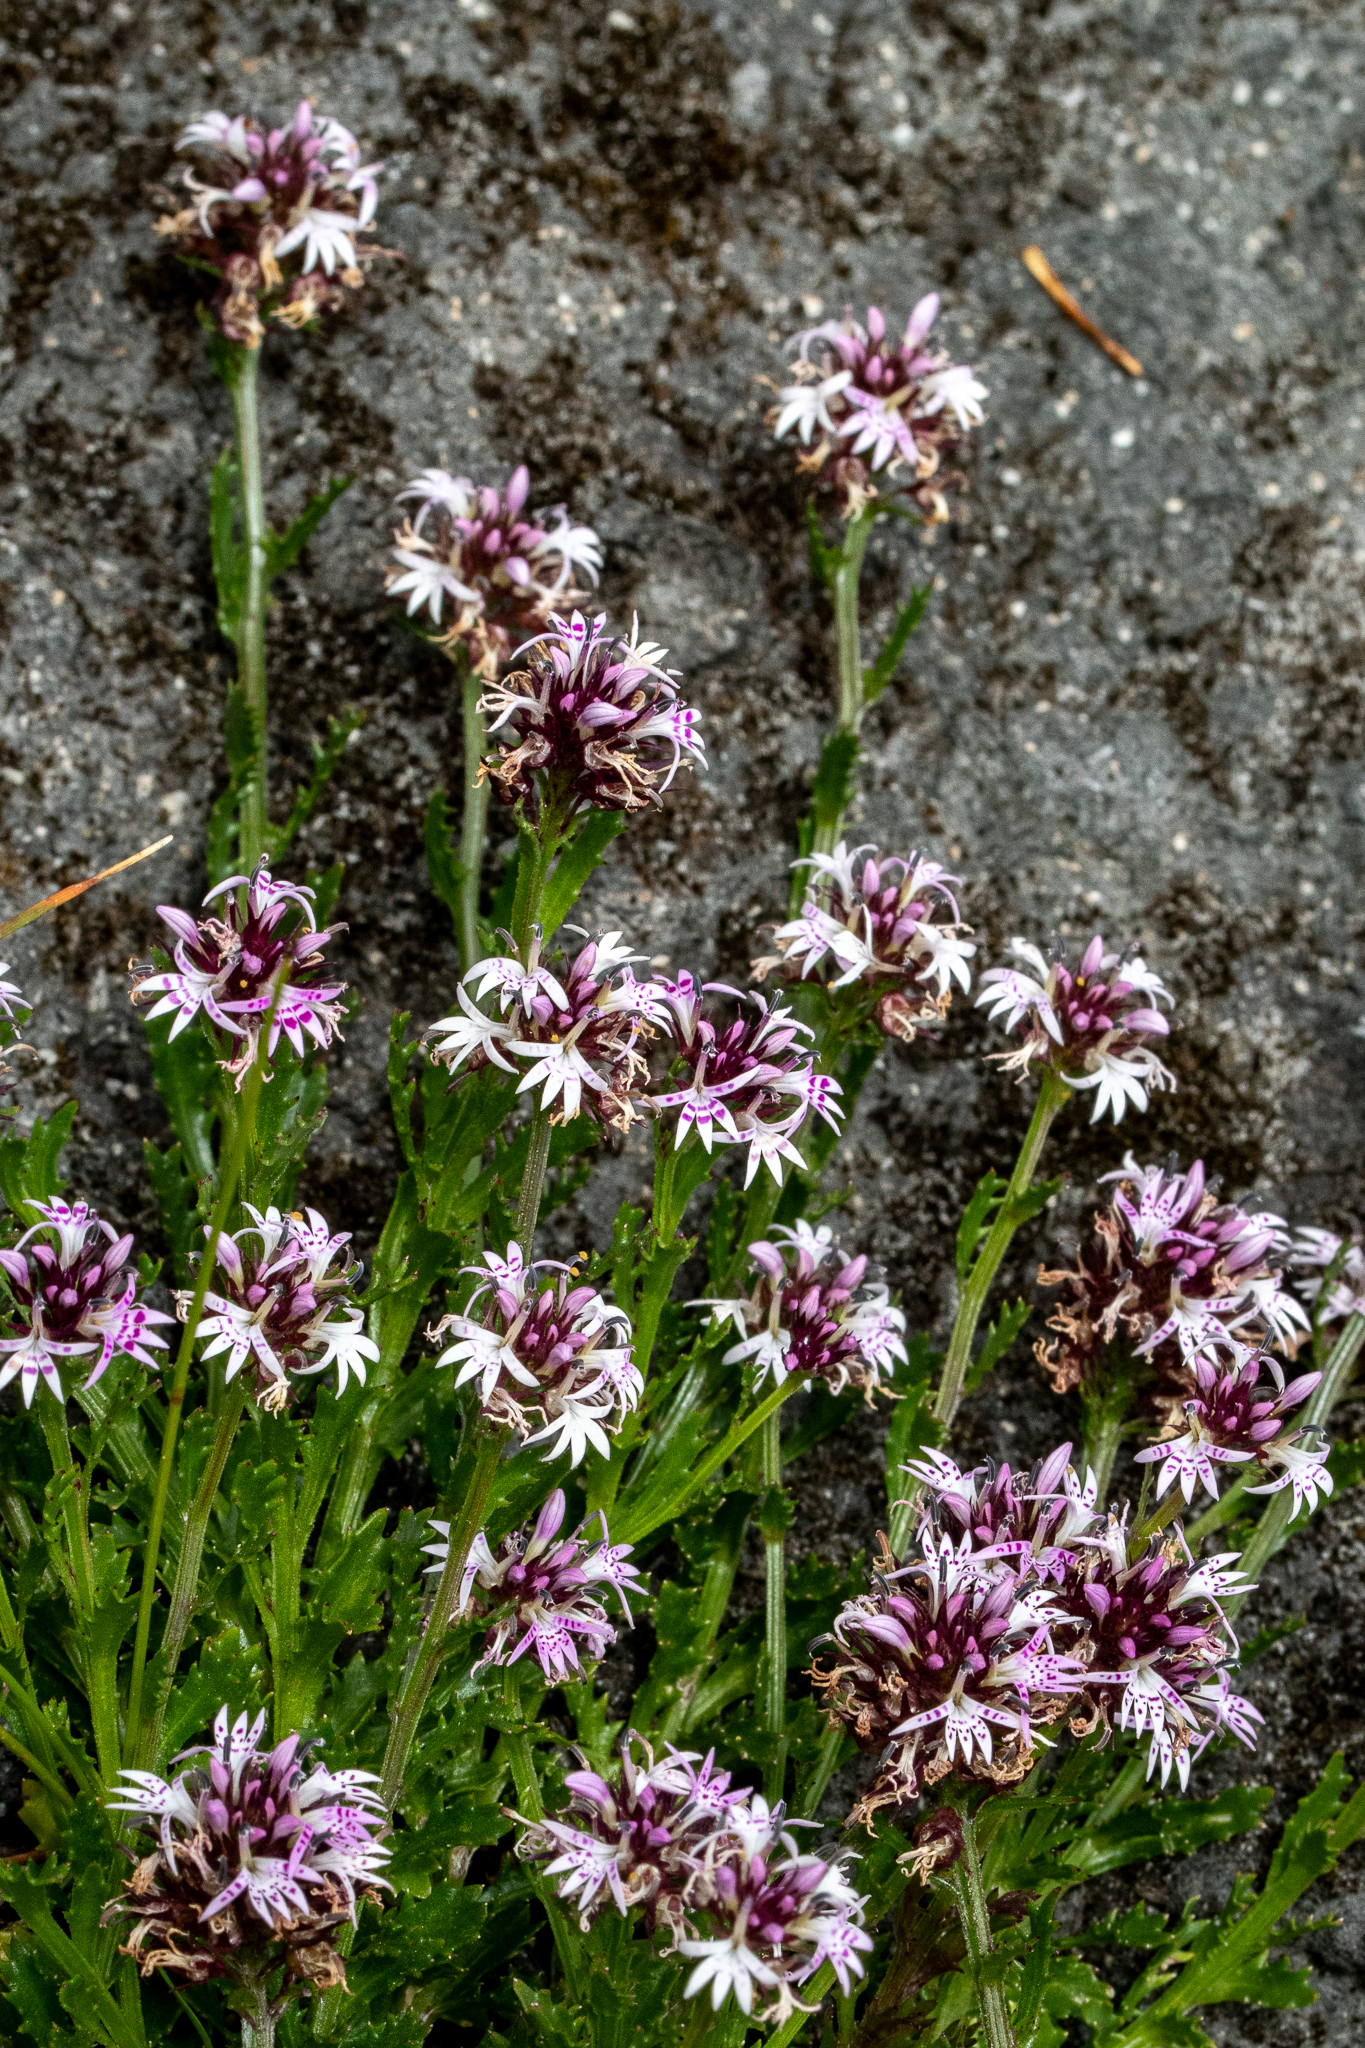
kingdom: Plantae
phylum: Tracheophyta
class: Magnoliopsida
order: Asterales
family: Campanulaceae
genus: Lobelia
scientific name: Lobelia jasionoides
